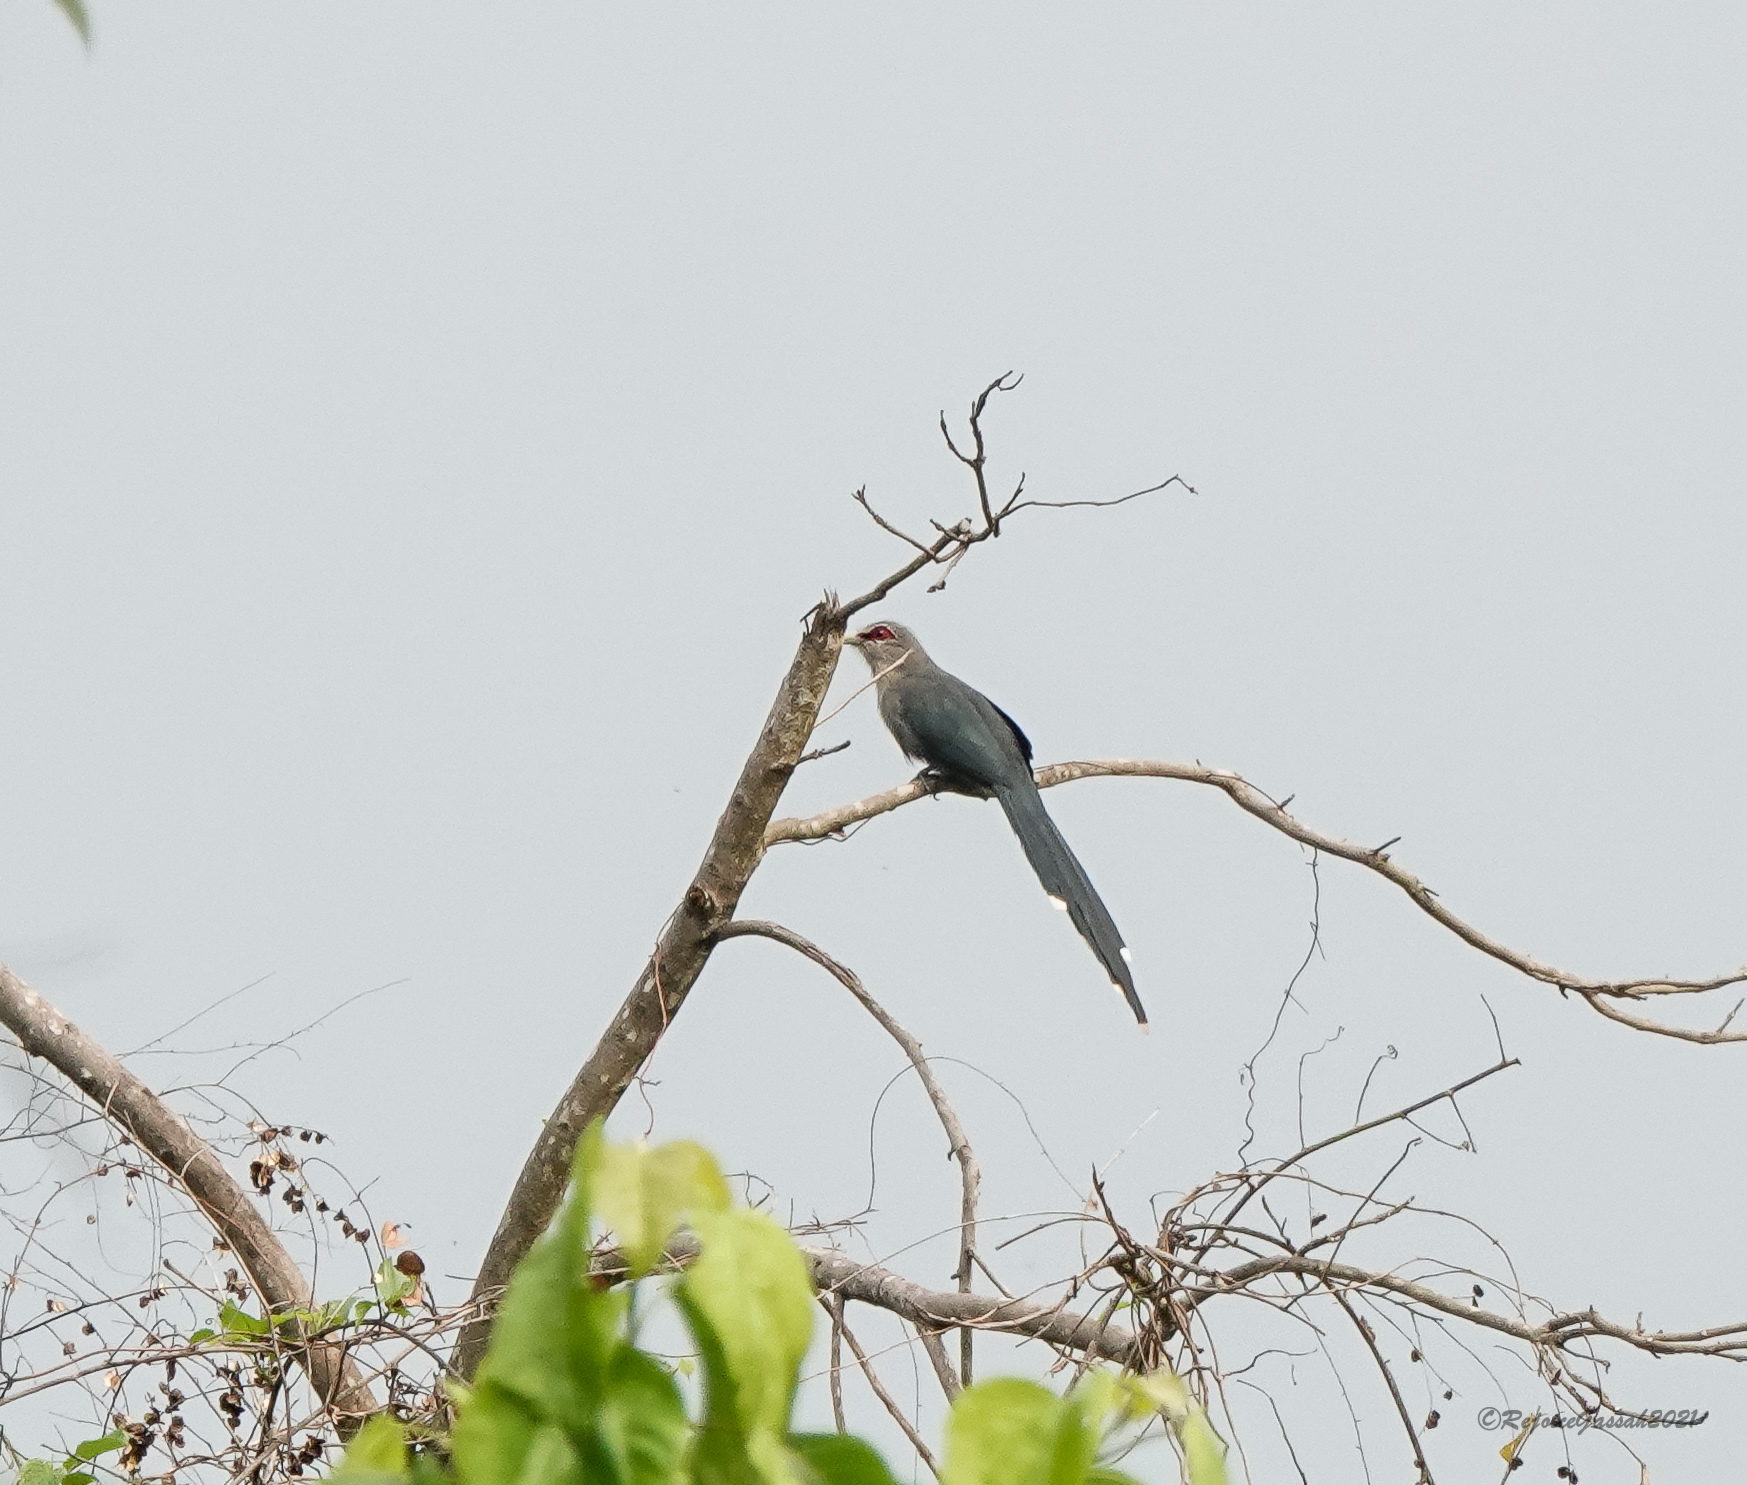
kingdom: Animalia
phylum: Chordata
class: Aves
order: Cuculiformes
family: Cuculidae
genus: Rhopodytes
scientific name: Rhopodytes tristis
